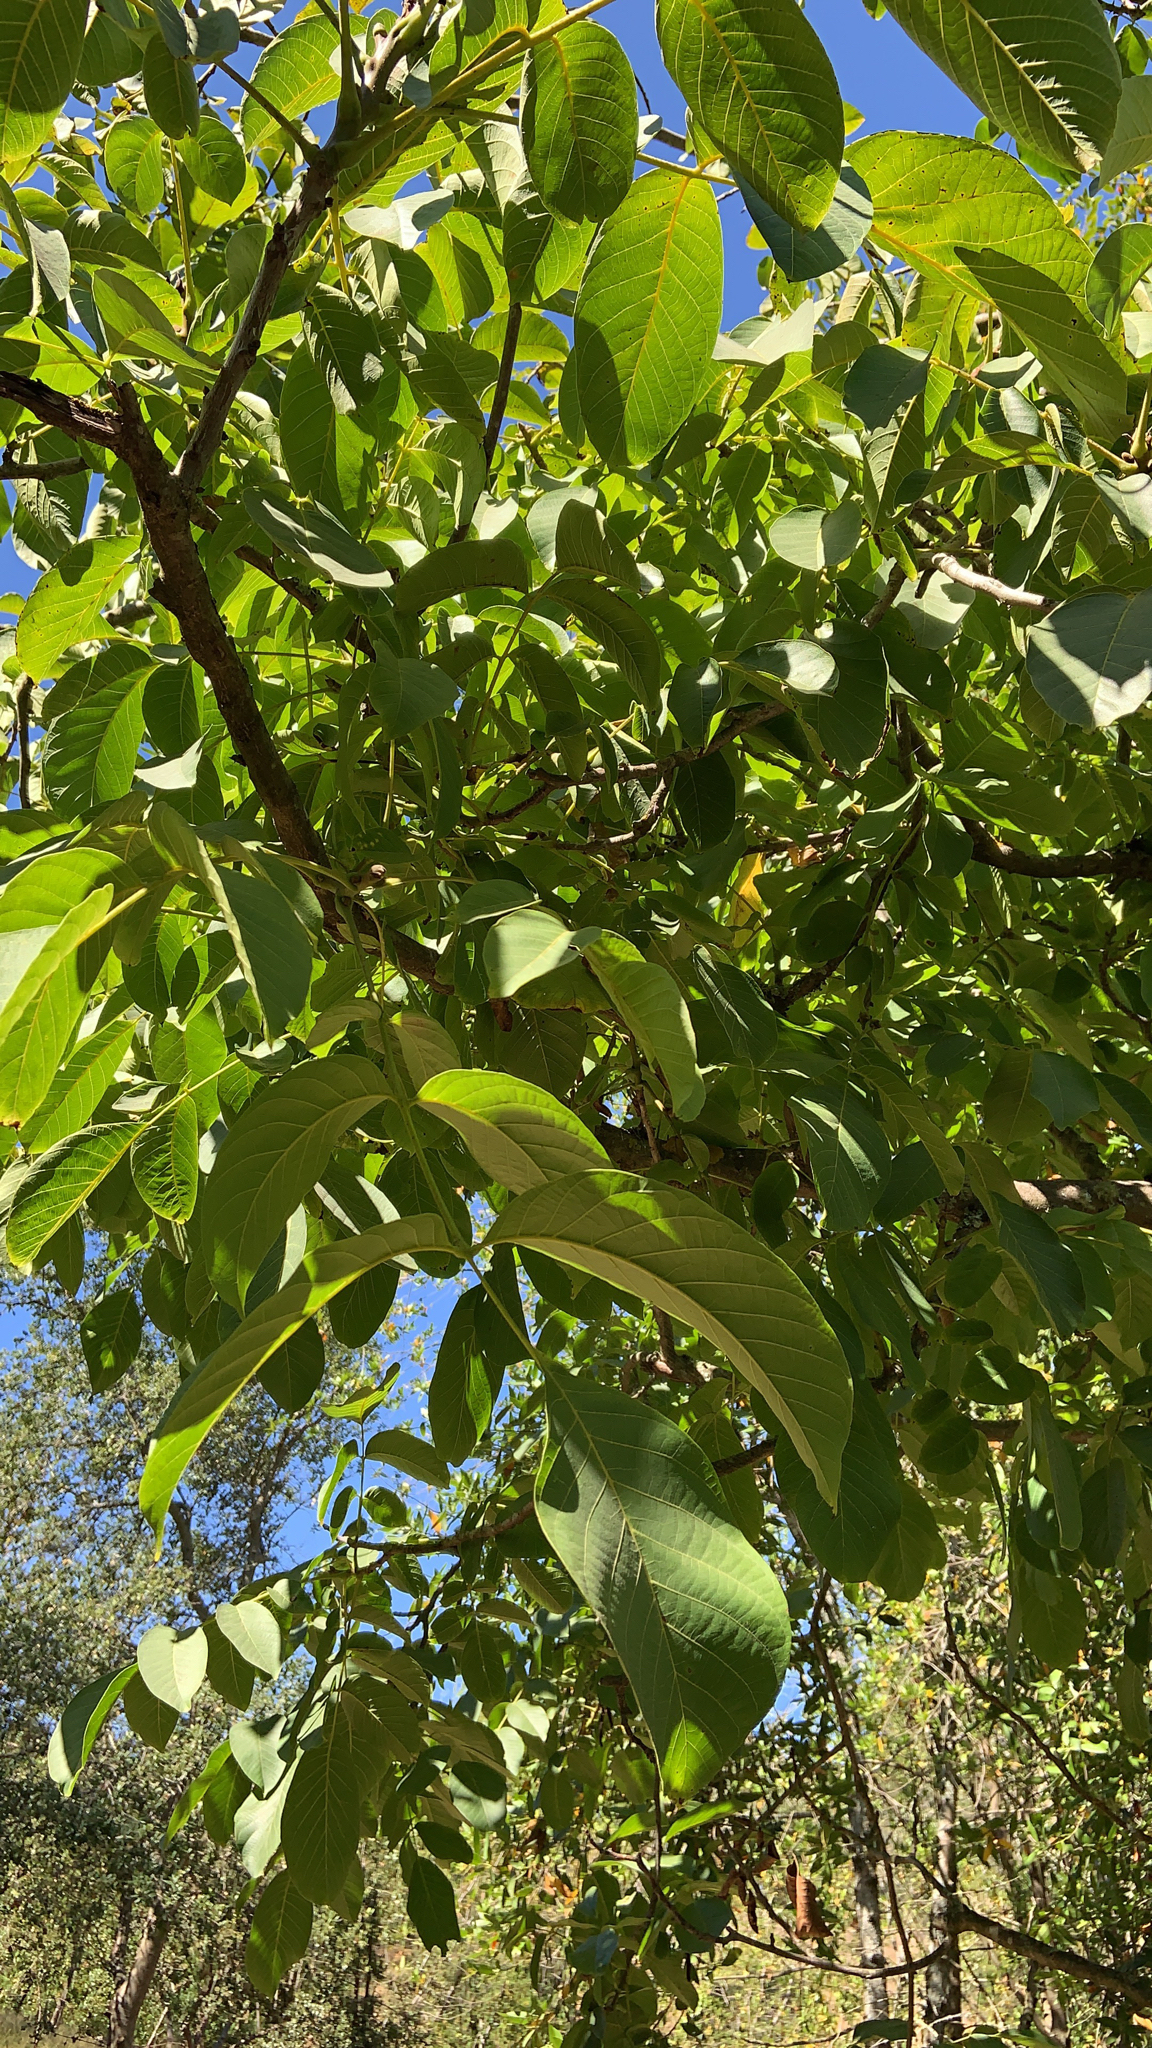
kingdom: Plantae
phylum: Tracheophyta
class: Magnoliopsida
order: Fagales
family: Juglandaceae
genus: Juglans
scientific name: Juglans regia
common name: Walnut
